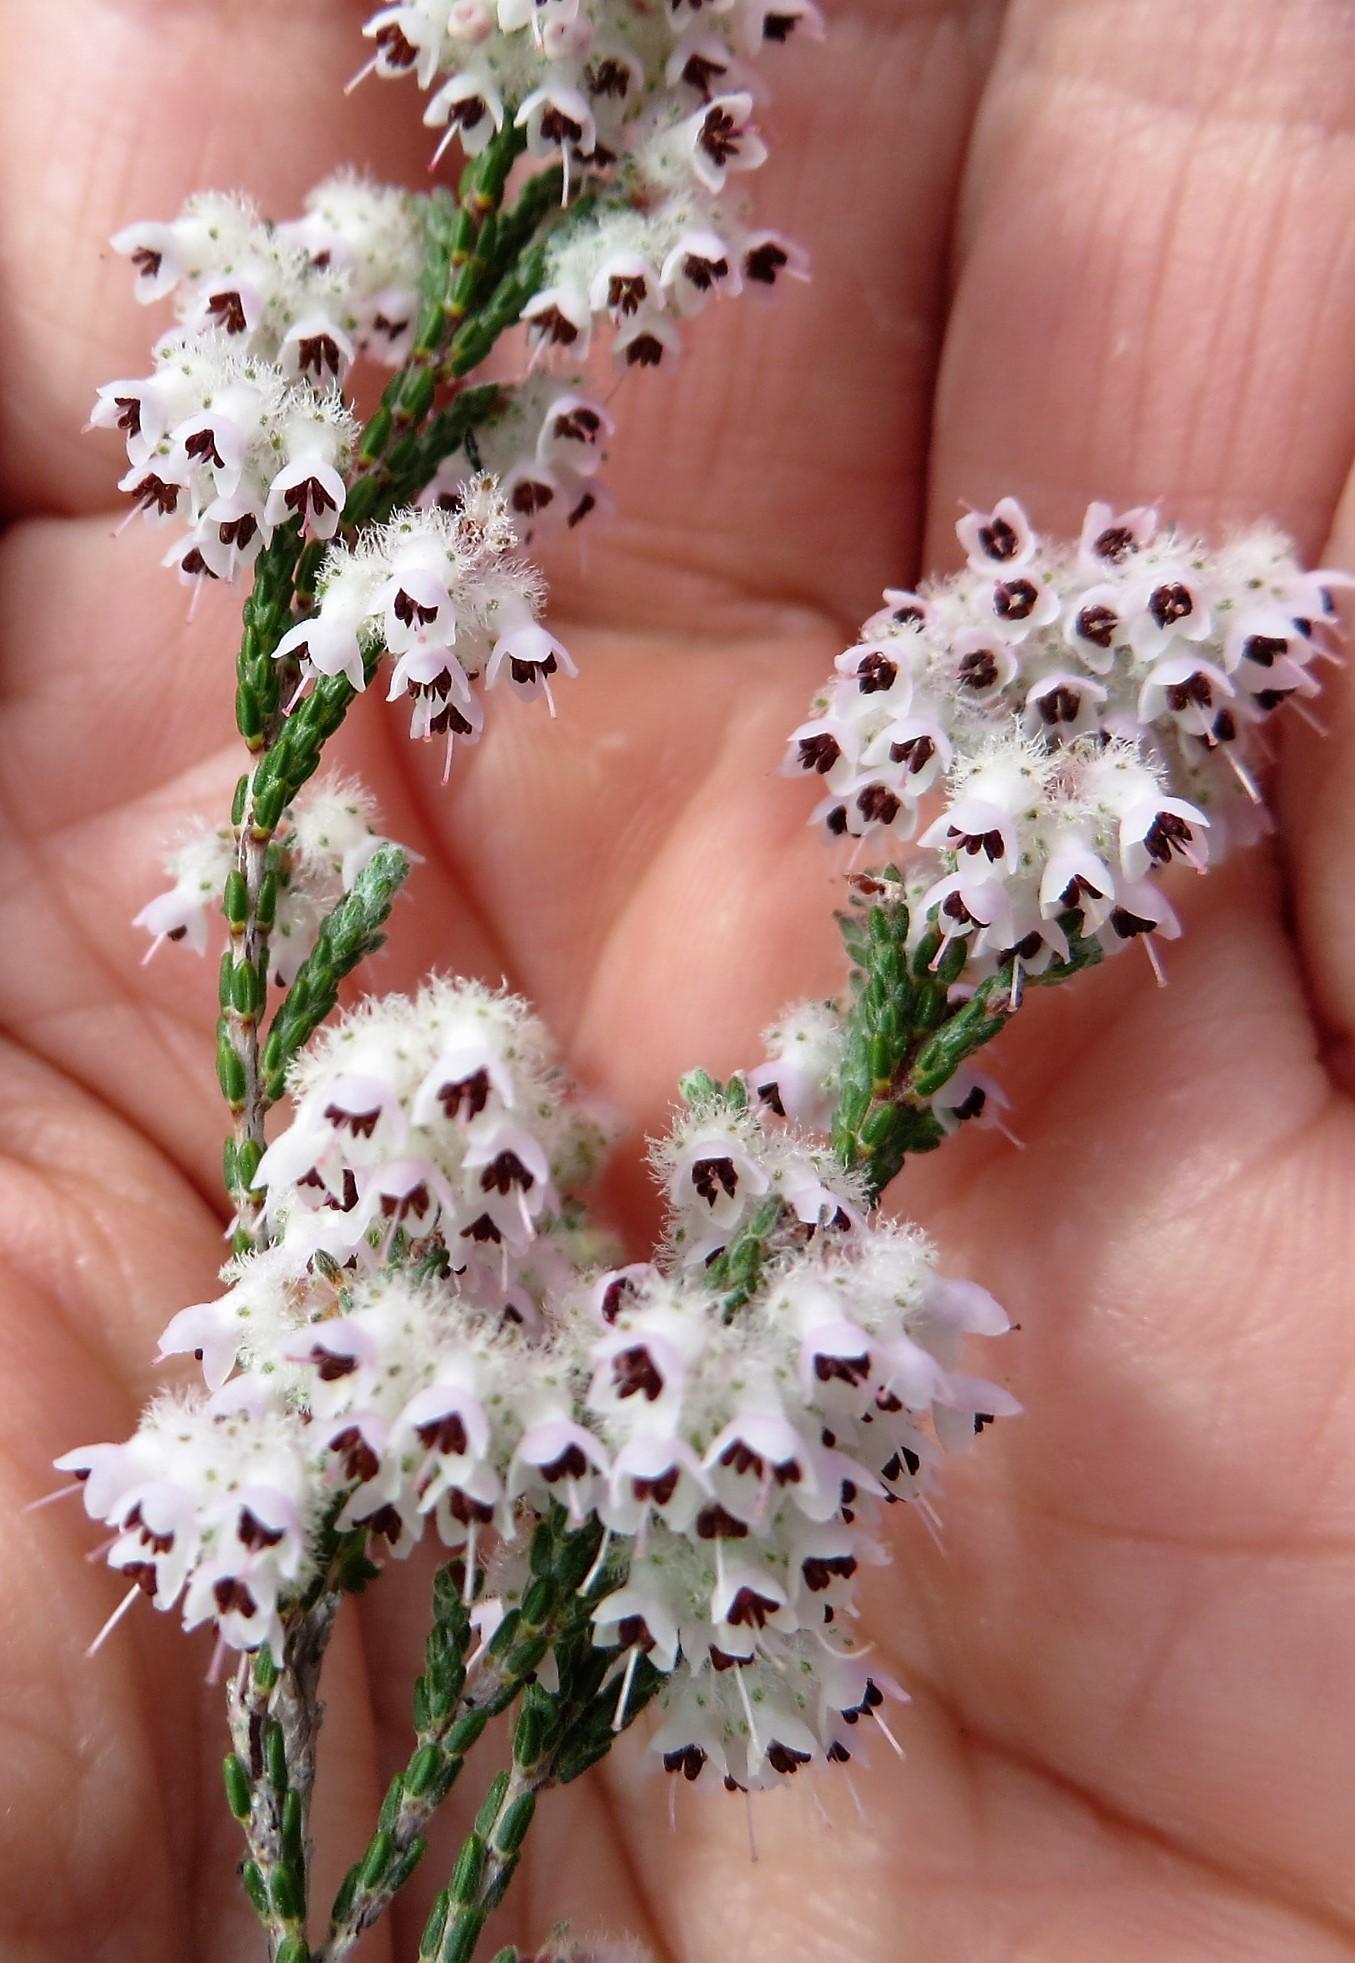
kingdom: Plantae
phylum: Tracheophyta
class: Magnoliopsida
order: Ericales
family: Ericaceae
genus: Erica
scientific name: Erica plumosa
